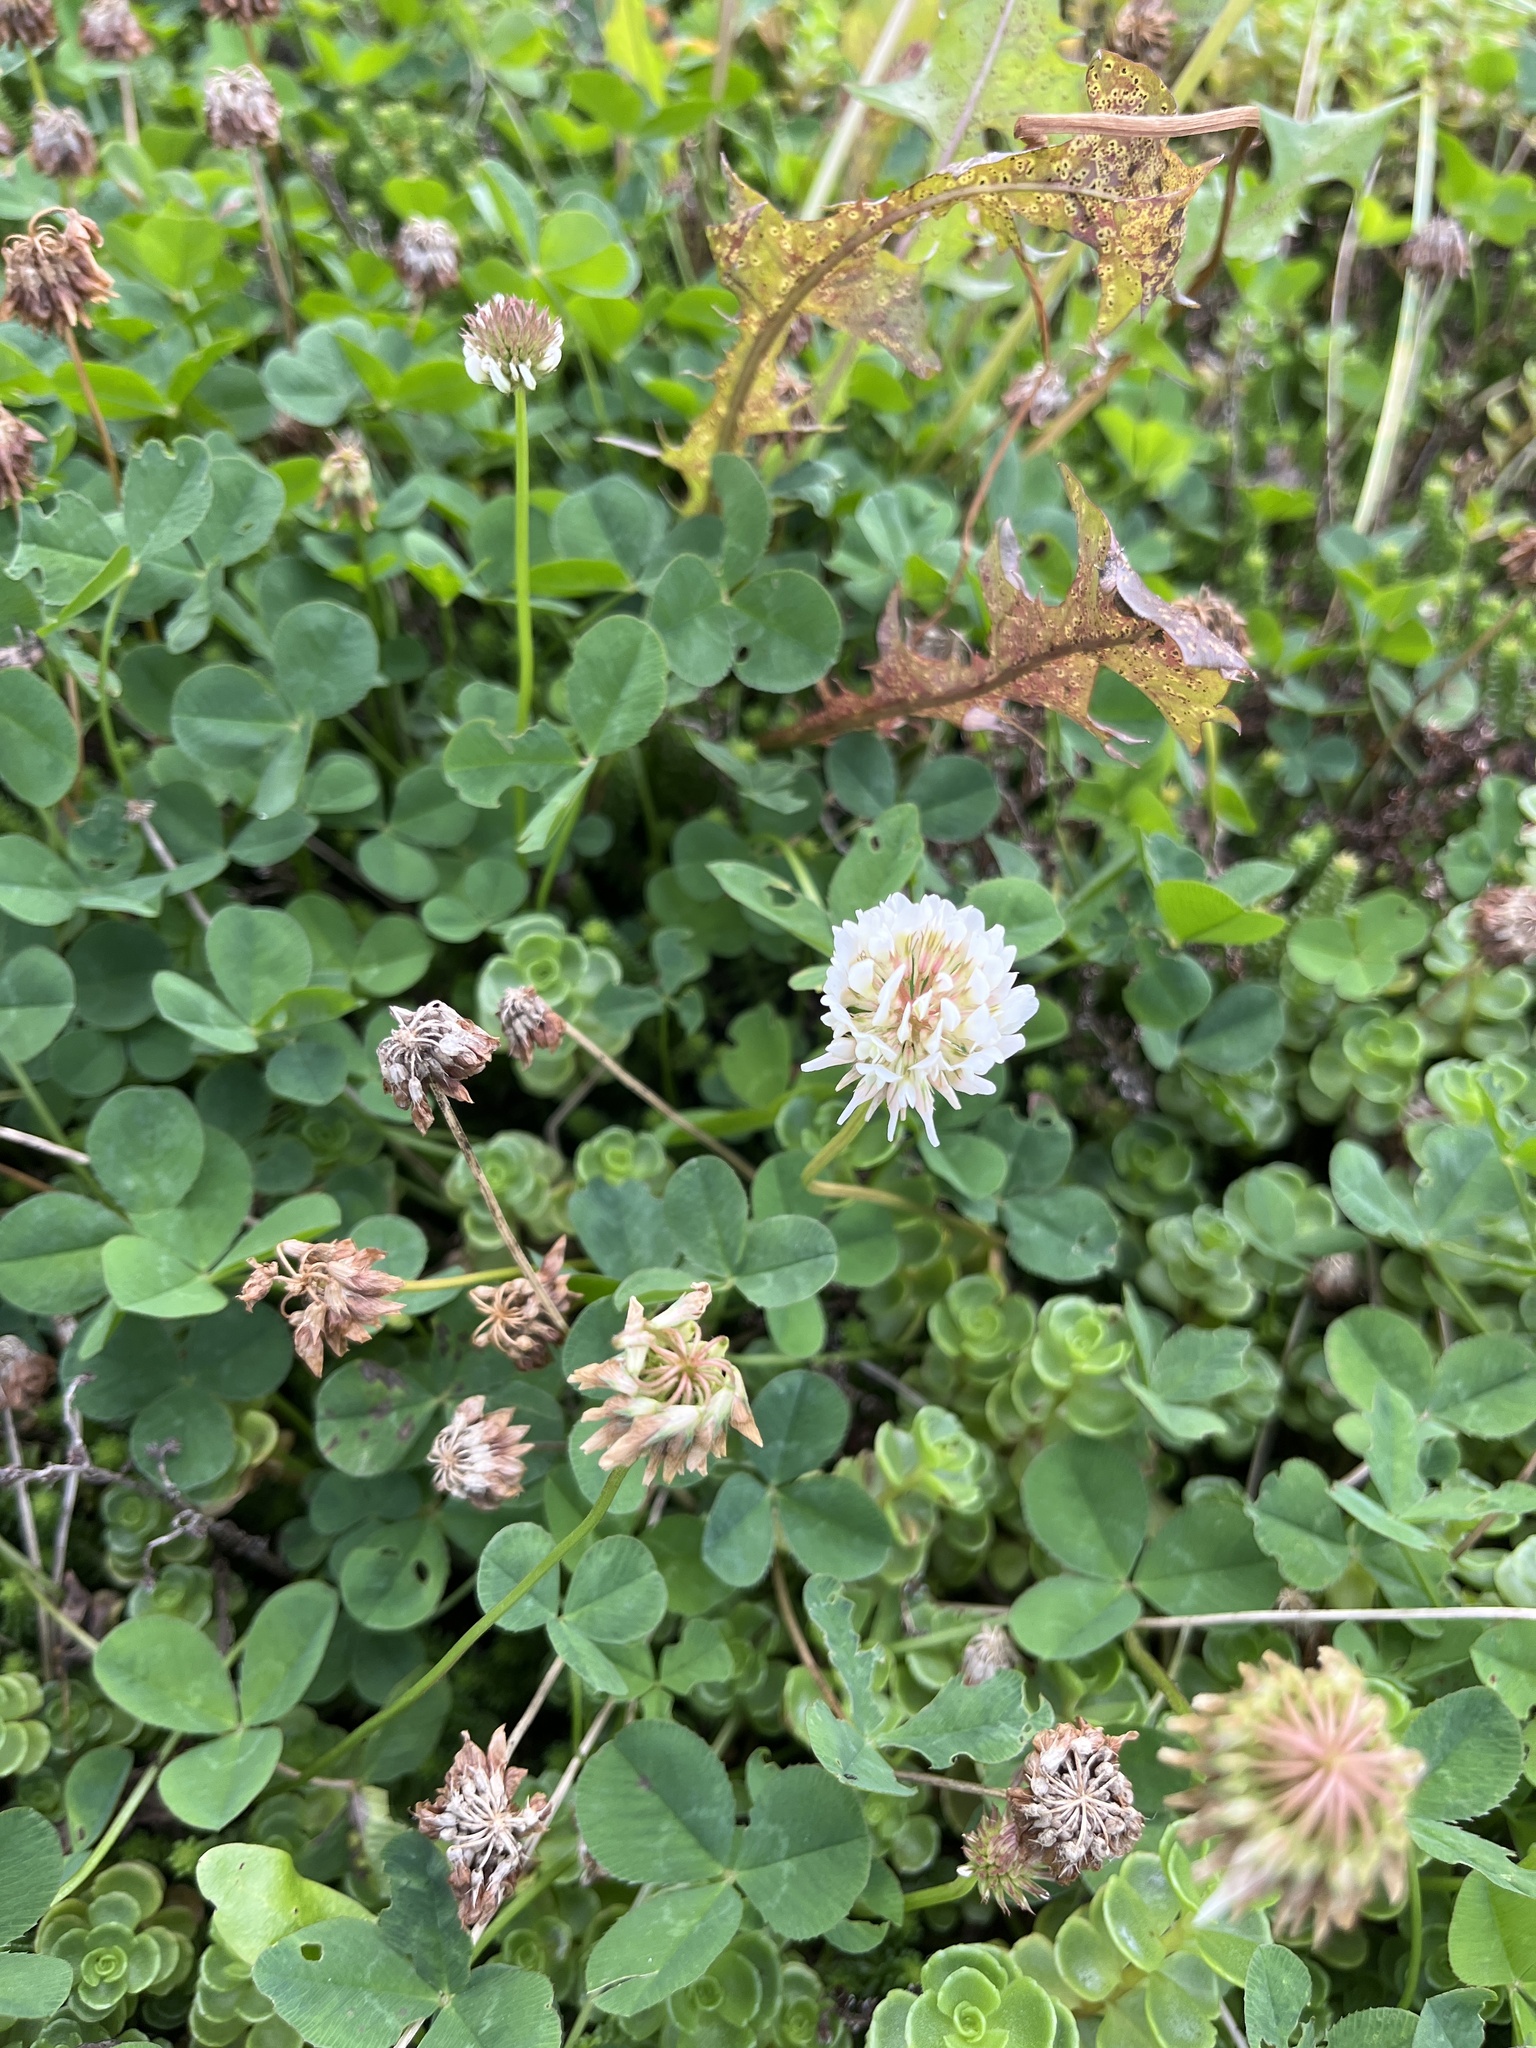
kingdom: Plantae
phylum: Tracheophyta
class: Magnoliopsida
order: Fabales
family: Fabaceae
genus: Trifolium
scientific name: Trifolium repens
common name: White clover
